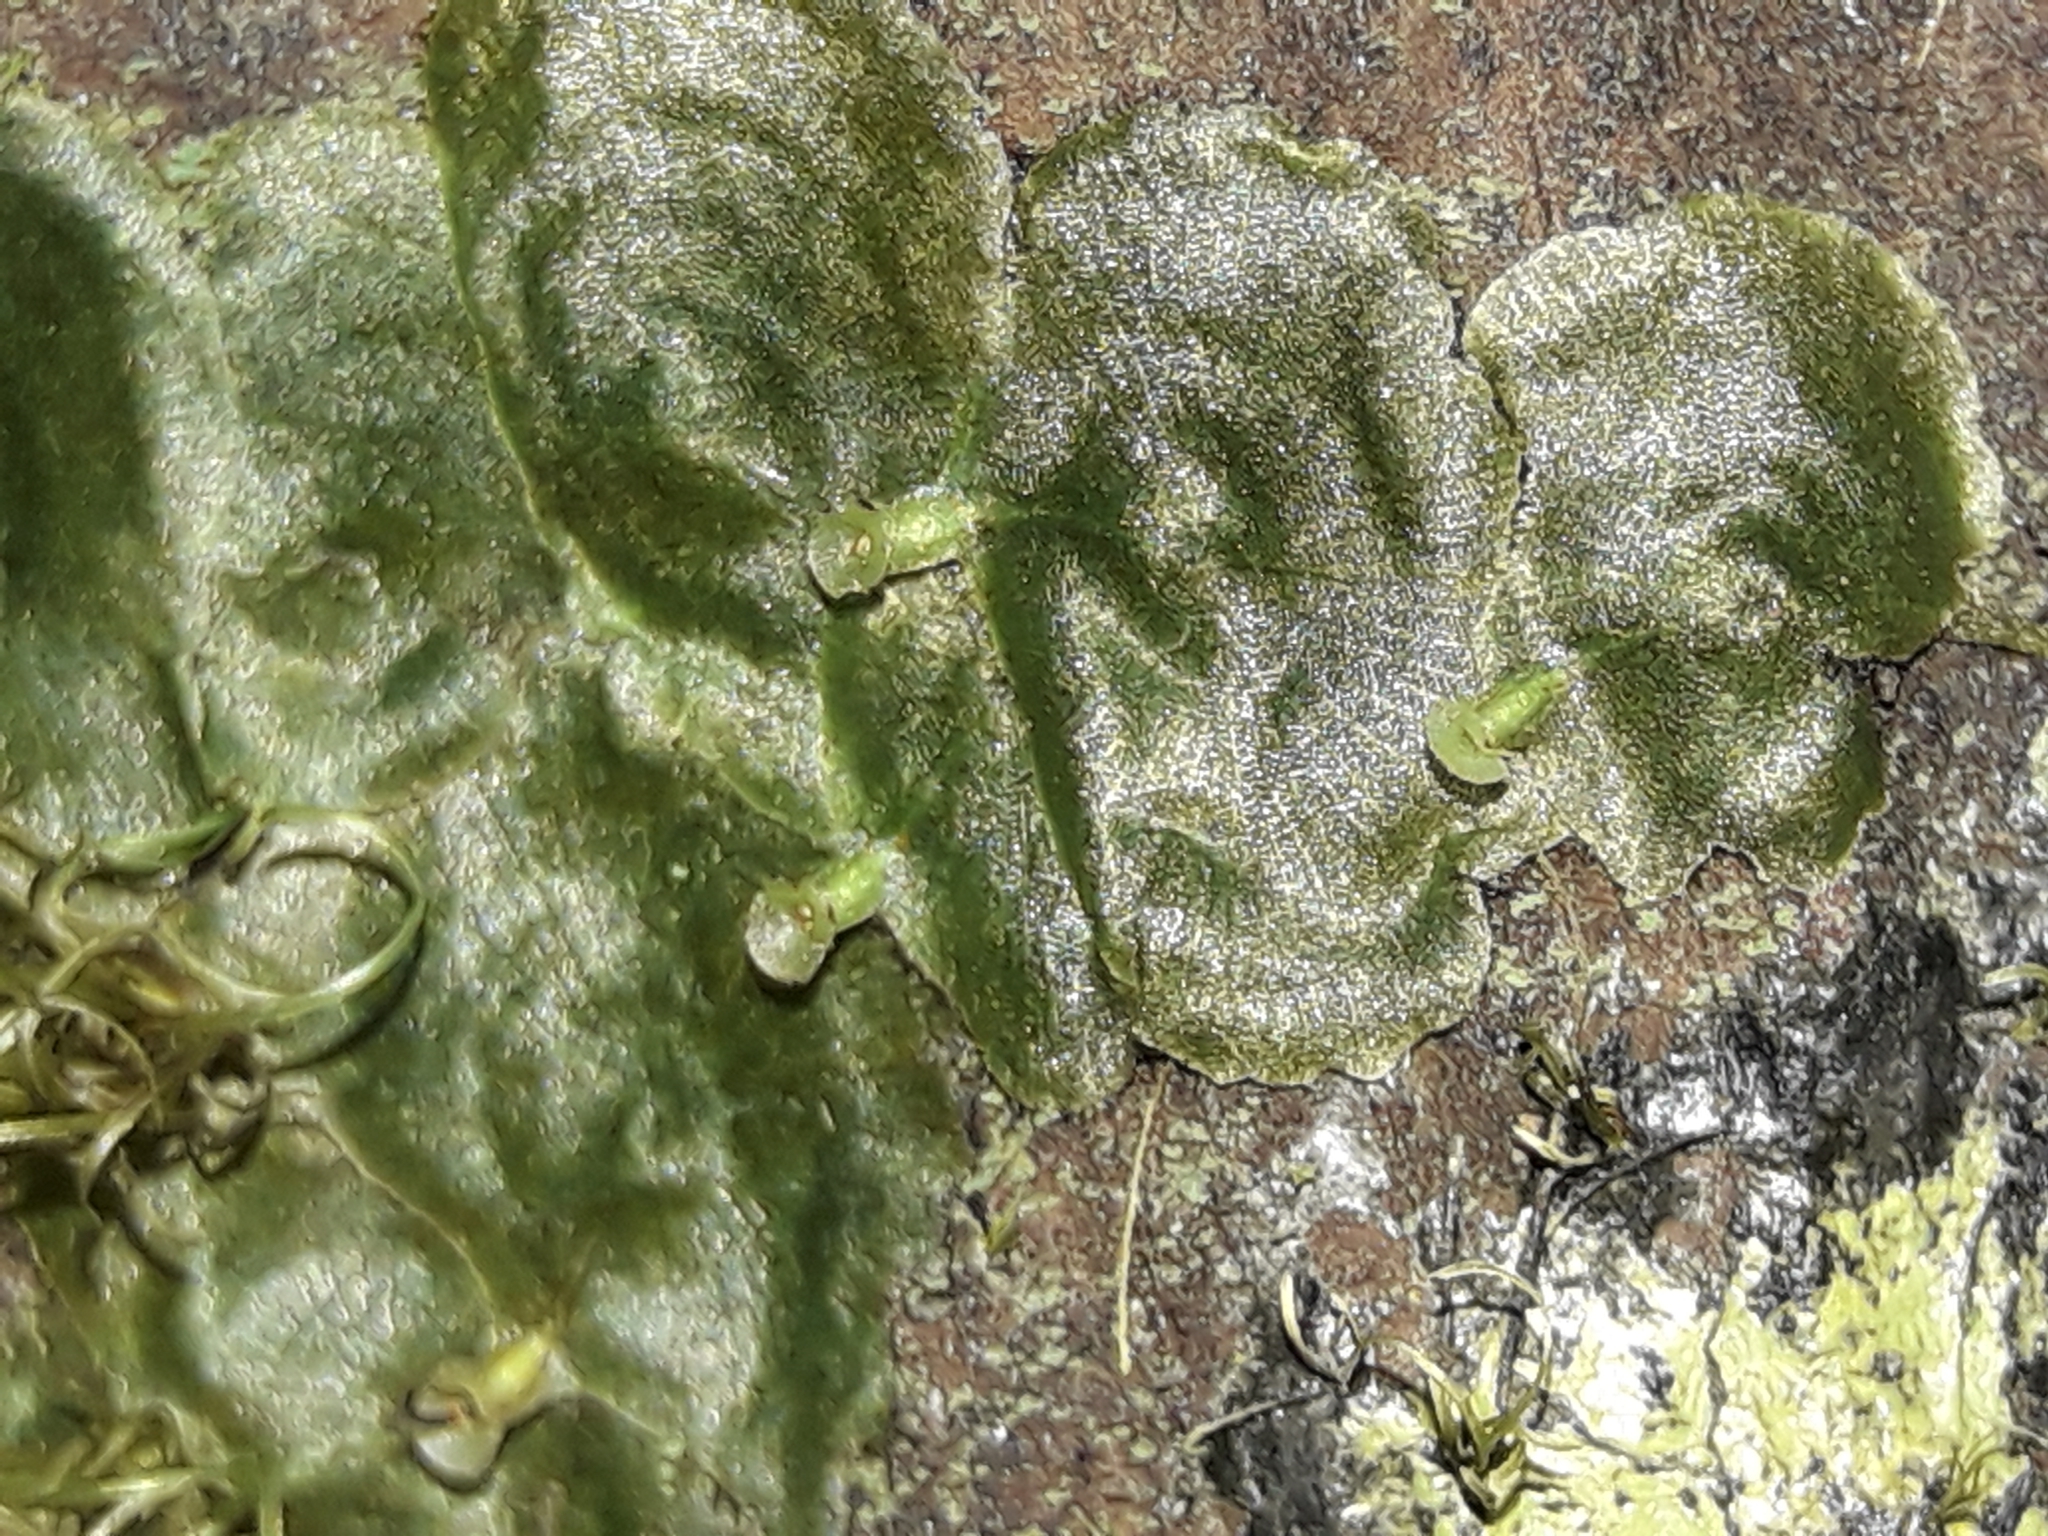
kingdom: Plantae
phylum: Tracheophyta
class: Polypodiopsida
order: Hymenophyllales
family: Hymenophyllaceae
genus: Didymoglossum
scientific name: Didymoglossum tahitense
